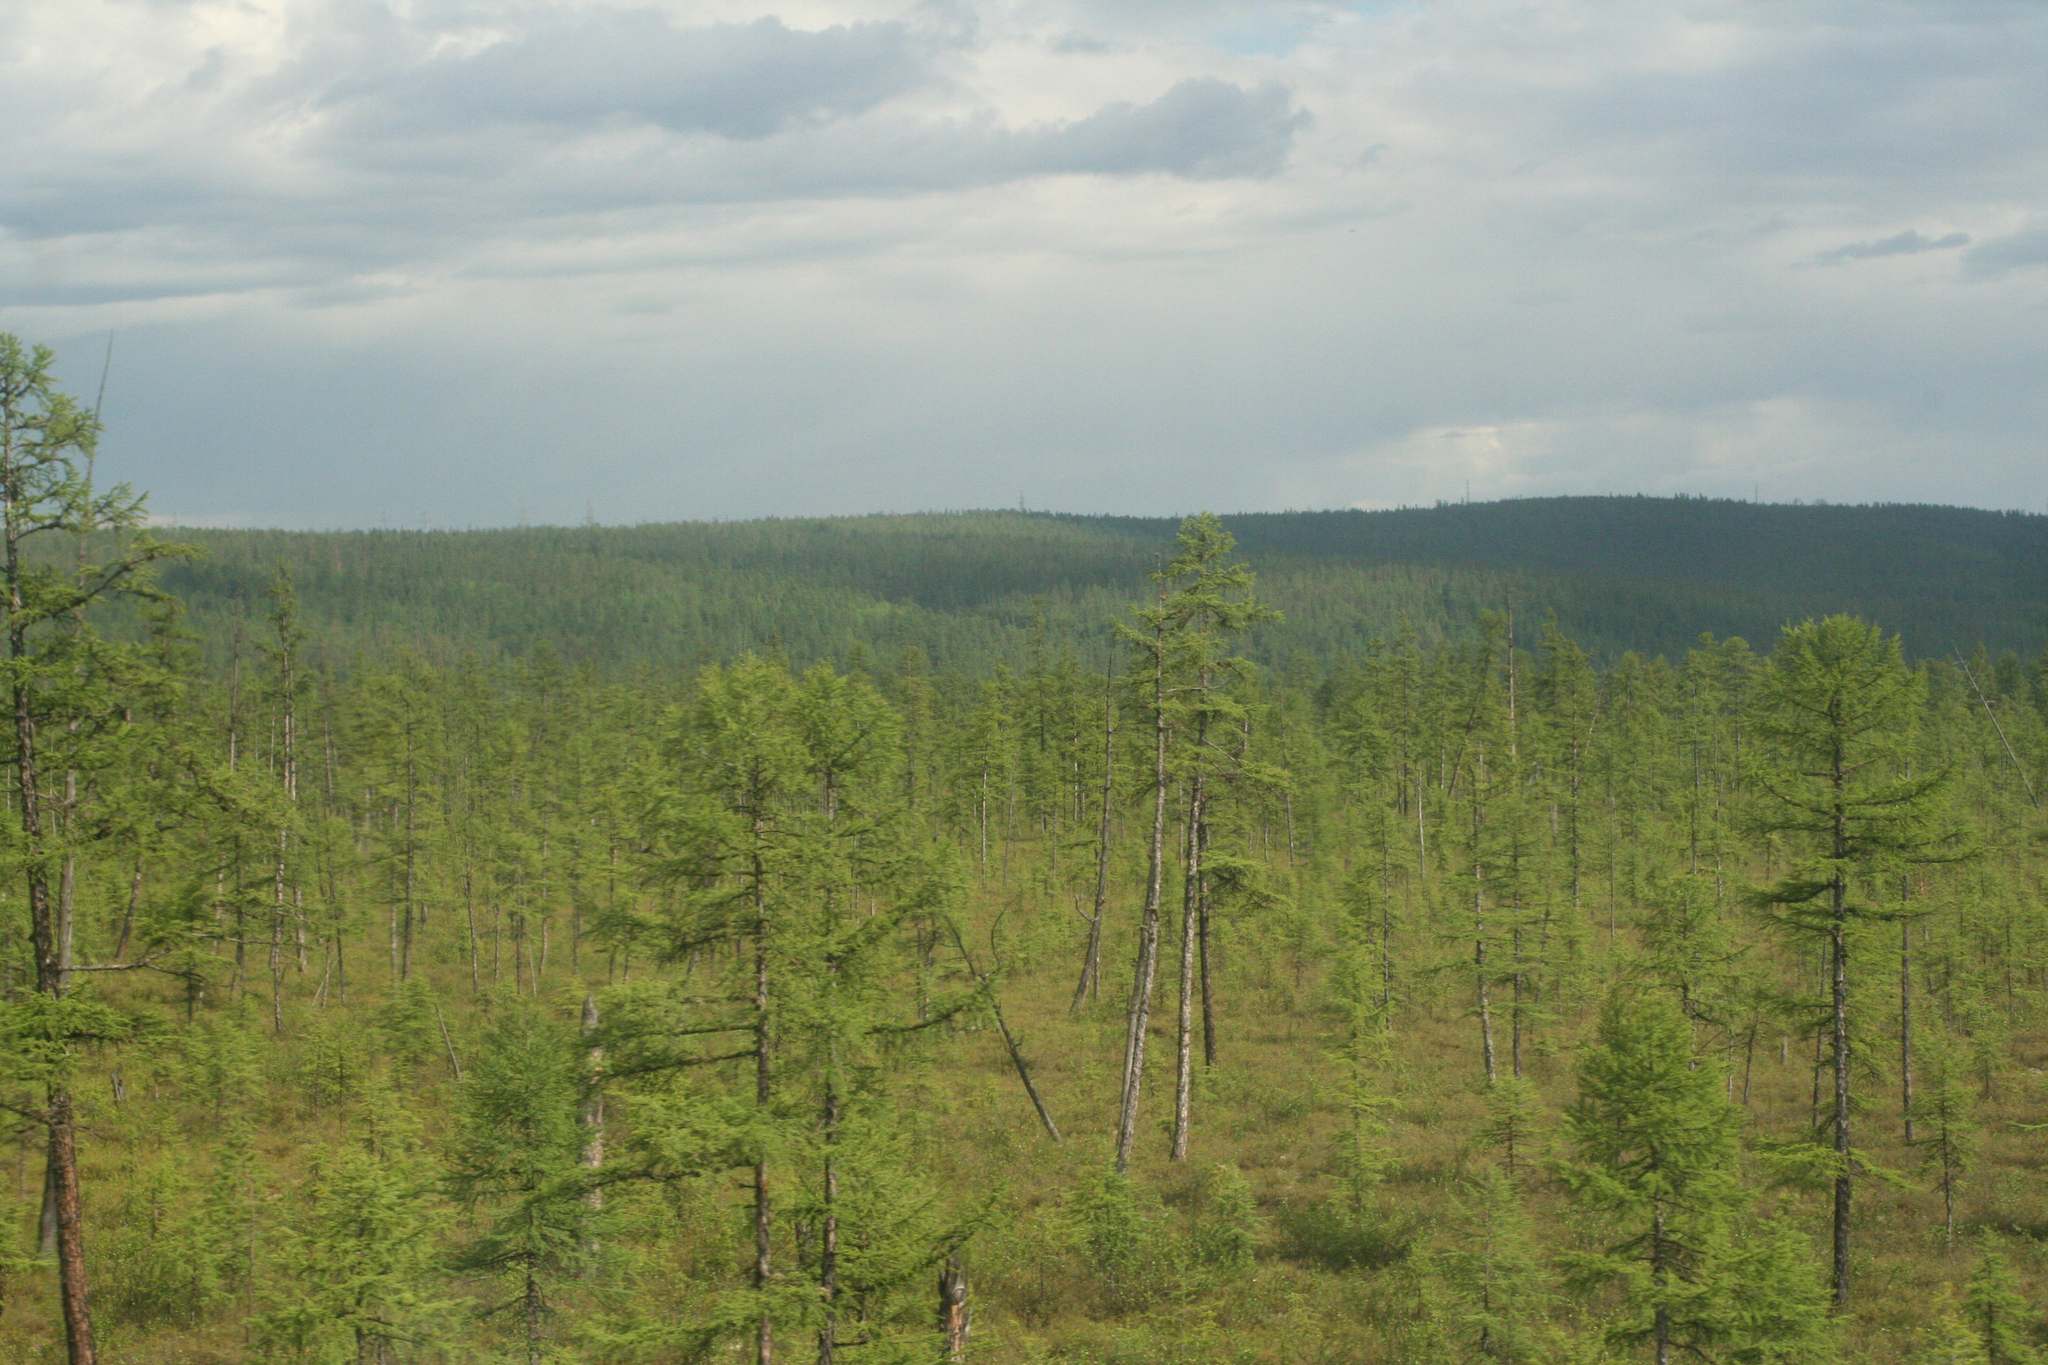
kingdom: Plantae
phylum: Tracheophyta
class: Pinopsida
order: Pinales
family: Pinaceae
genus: Larix
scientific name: Larix gmelinii
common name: Dahurian larch
